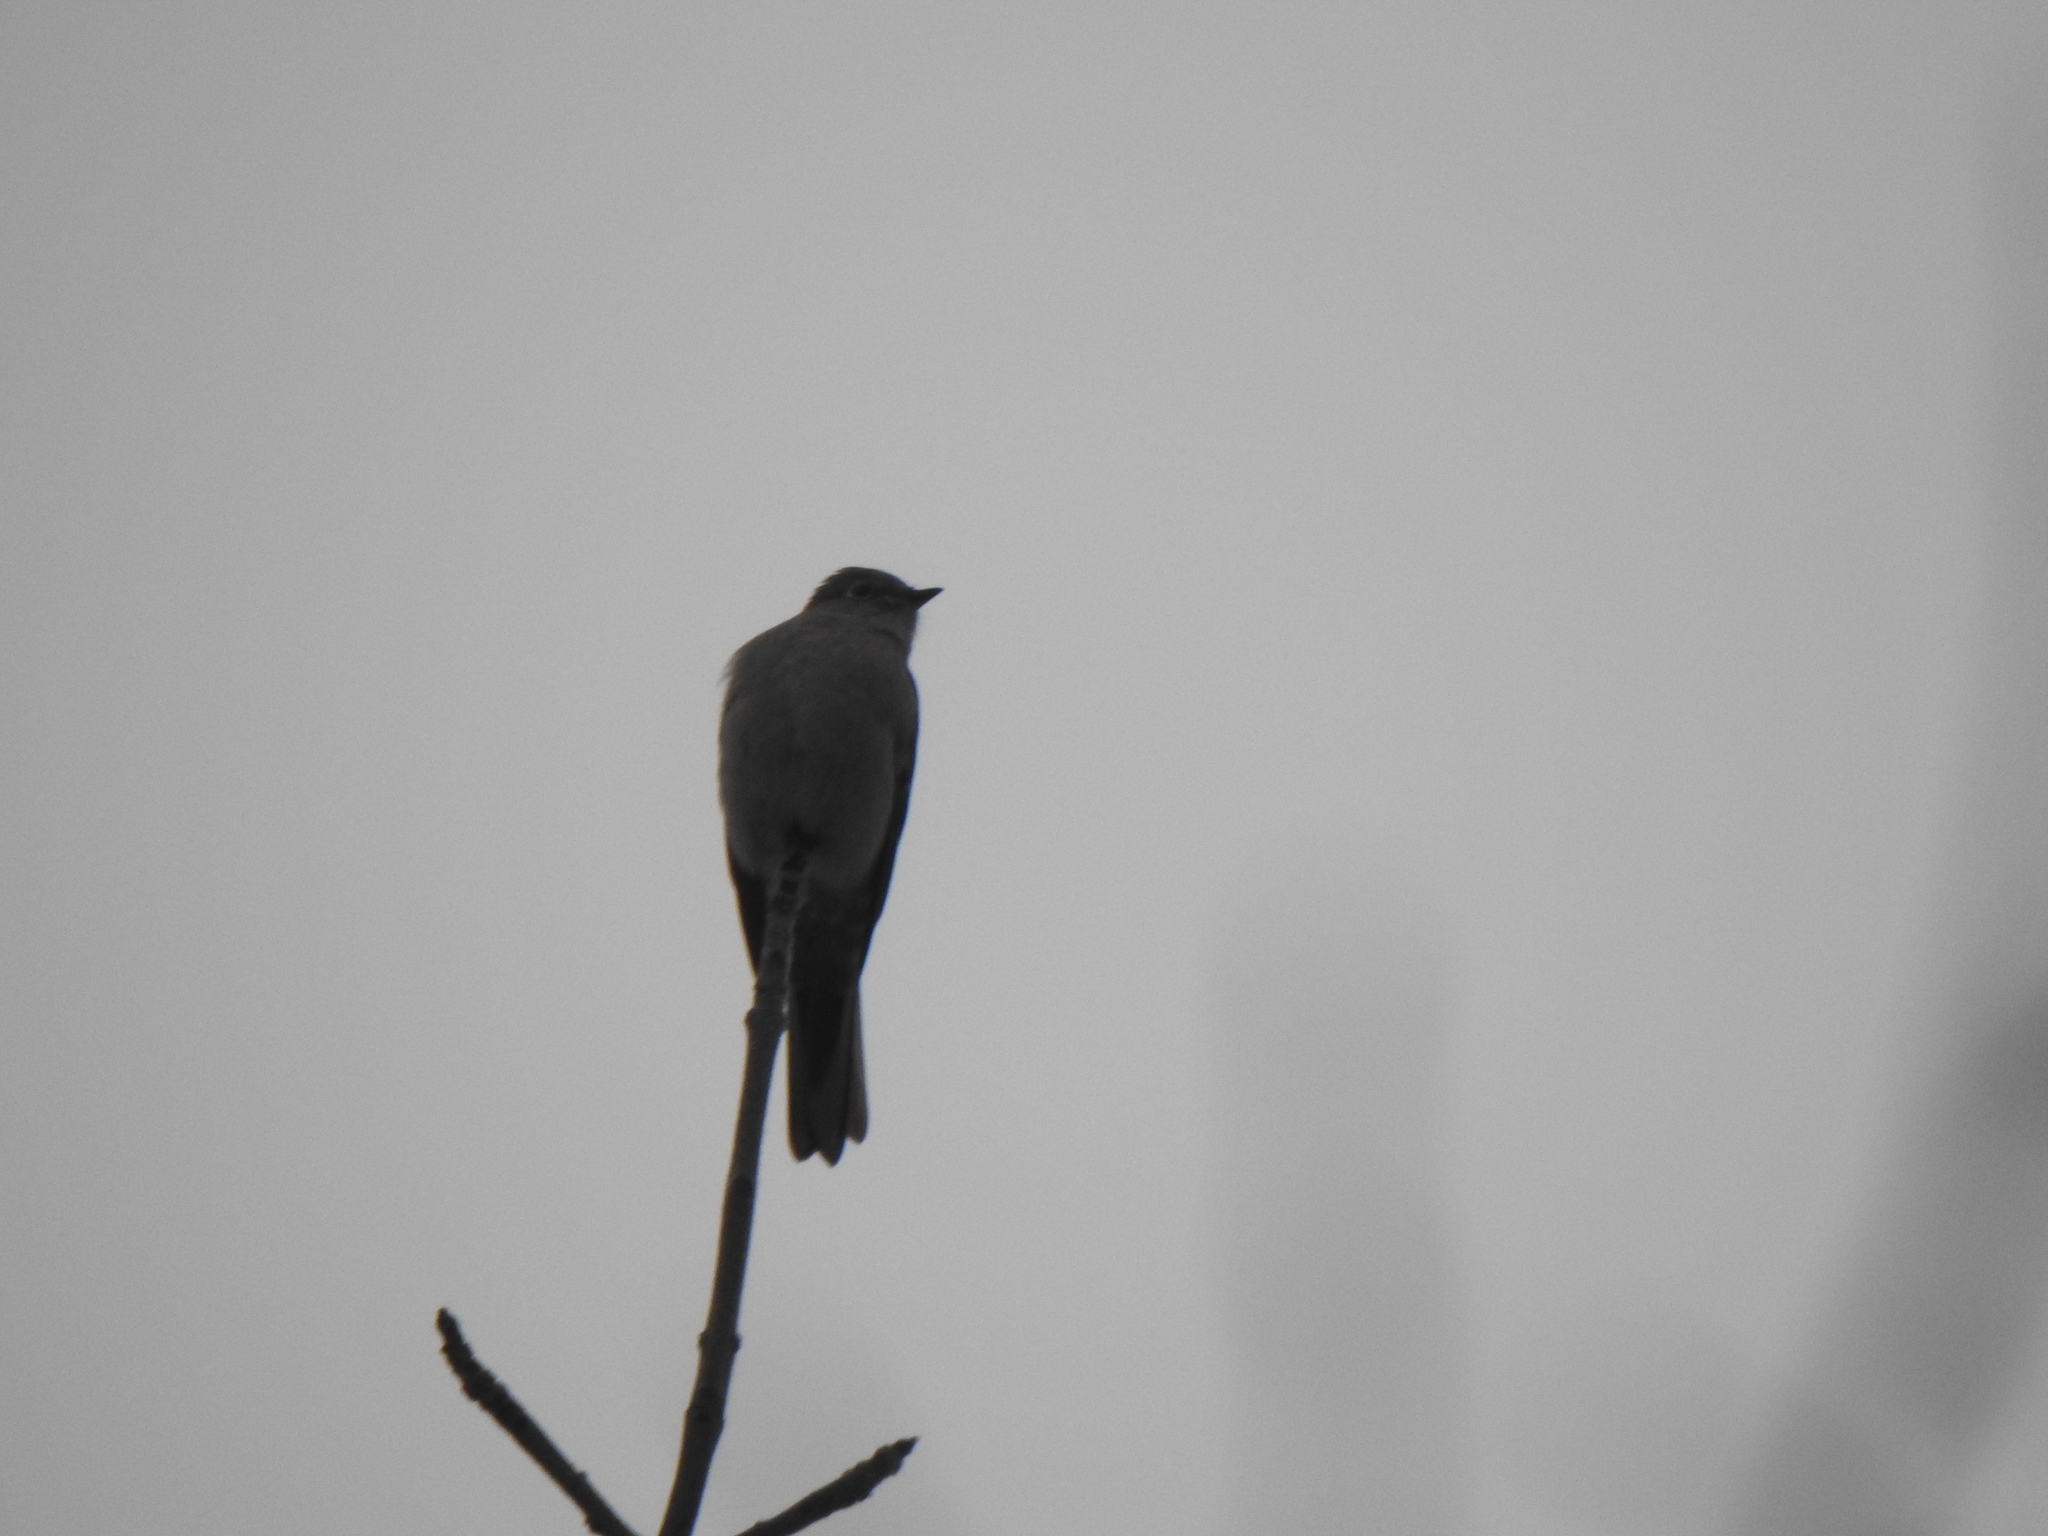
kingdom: Animalia
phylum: Chordata
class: Aves
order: Passeriformes
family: Turdidae
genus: Myadestes
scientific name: Myadestes townsendi
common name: Townsend's solitaire
